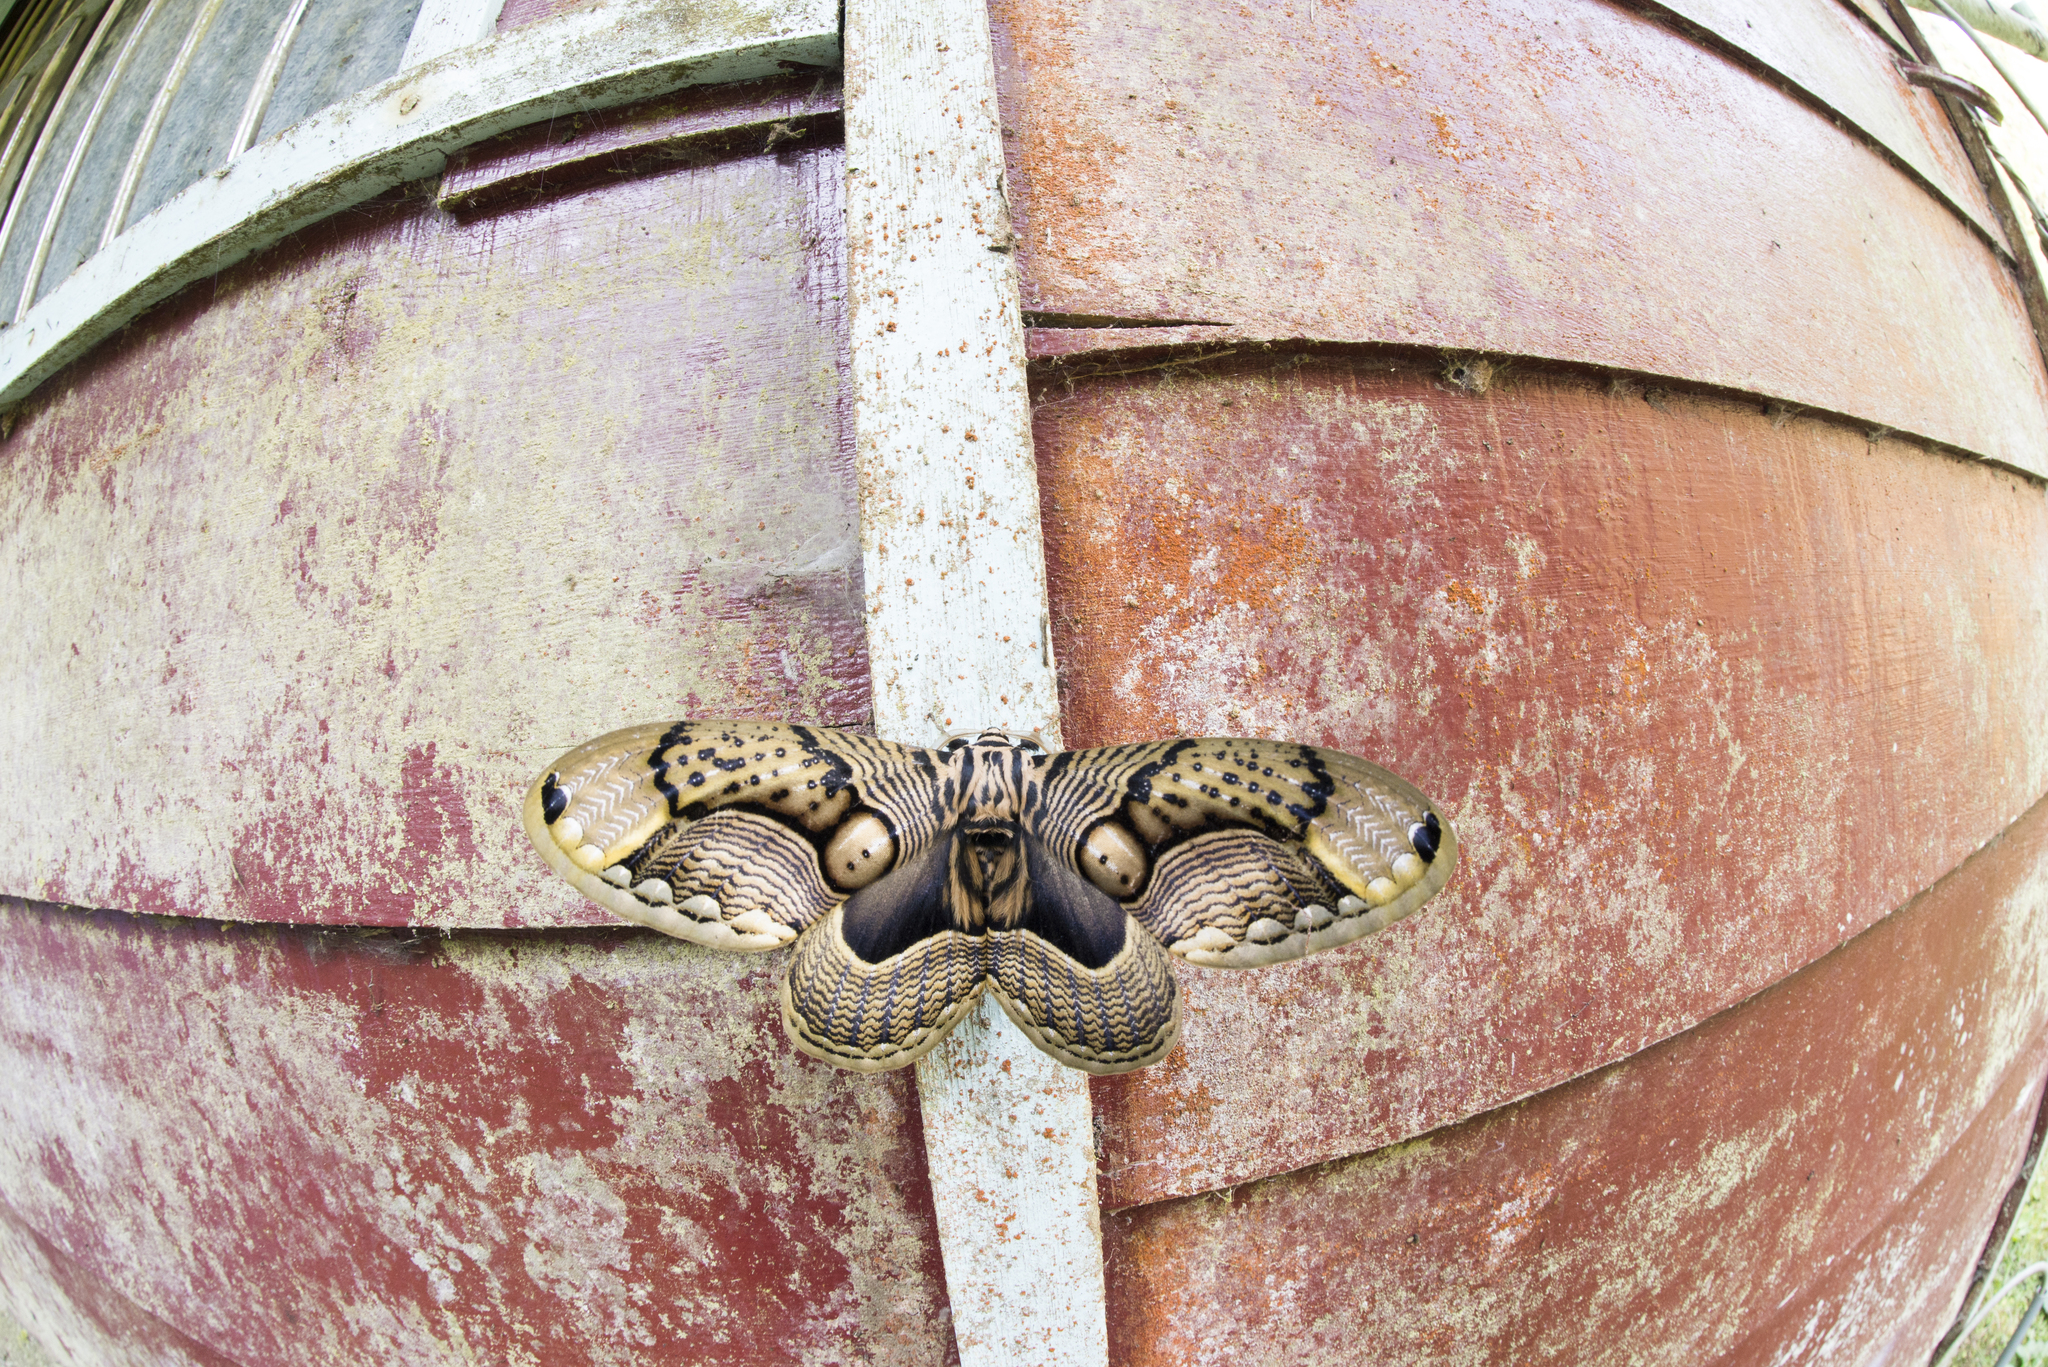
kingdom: Animalia
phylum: Arthropoda
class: Insecta
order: Lepidoptera
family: Brahmaeidae
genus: Brahmaea
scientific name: Brahmaea wallichii
